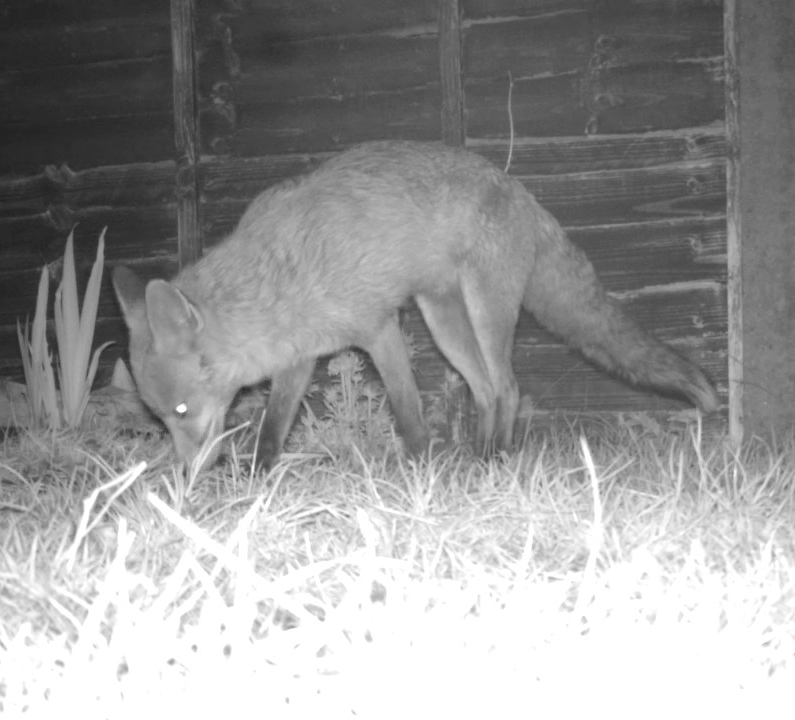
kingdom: Animalia
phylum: Chordata
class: Mammalia
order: Carnivora
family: Canidae
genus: Vulpes
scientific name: Vulpes vulpes
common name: Red fox
